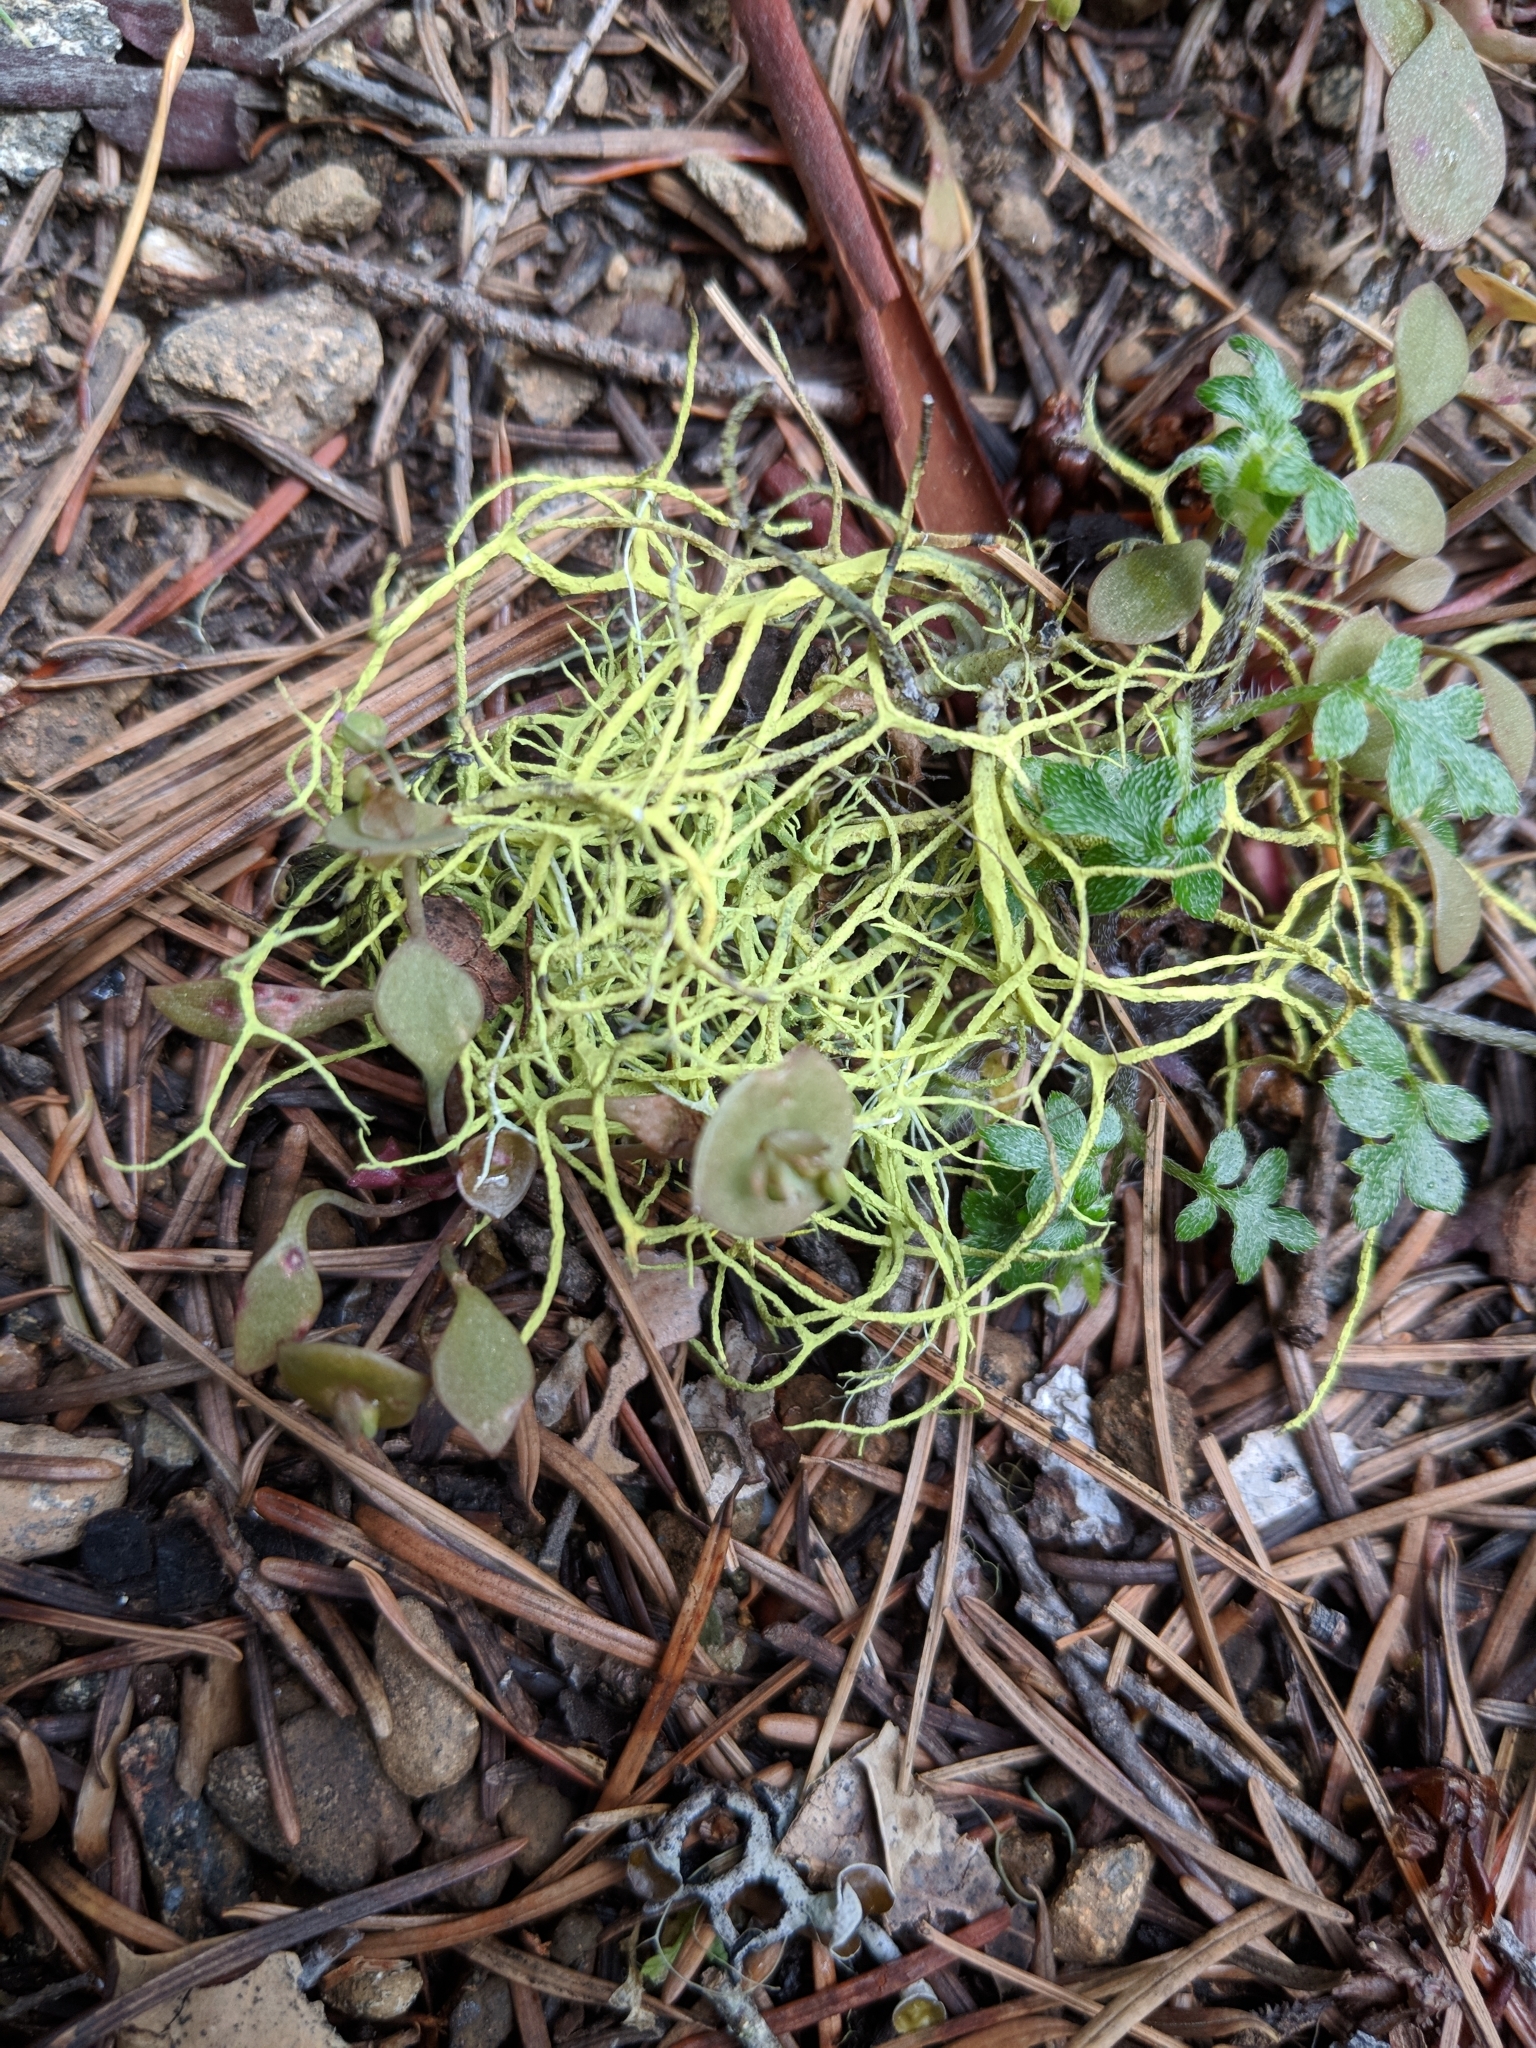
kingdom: Fungi
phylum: Ascomycota
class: Lecanoromycetes
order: Lecanorales
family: Parmeliaceae
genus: Letharia
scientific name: Letharia vulpina
